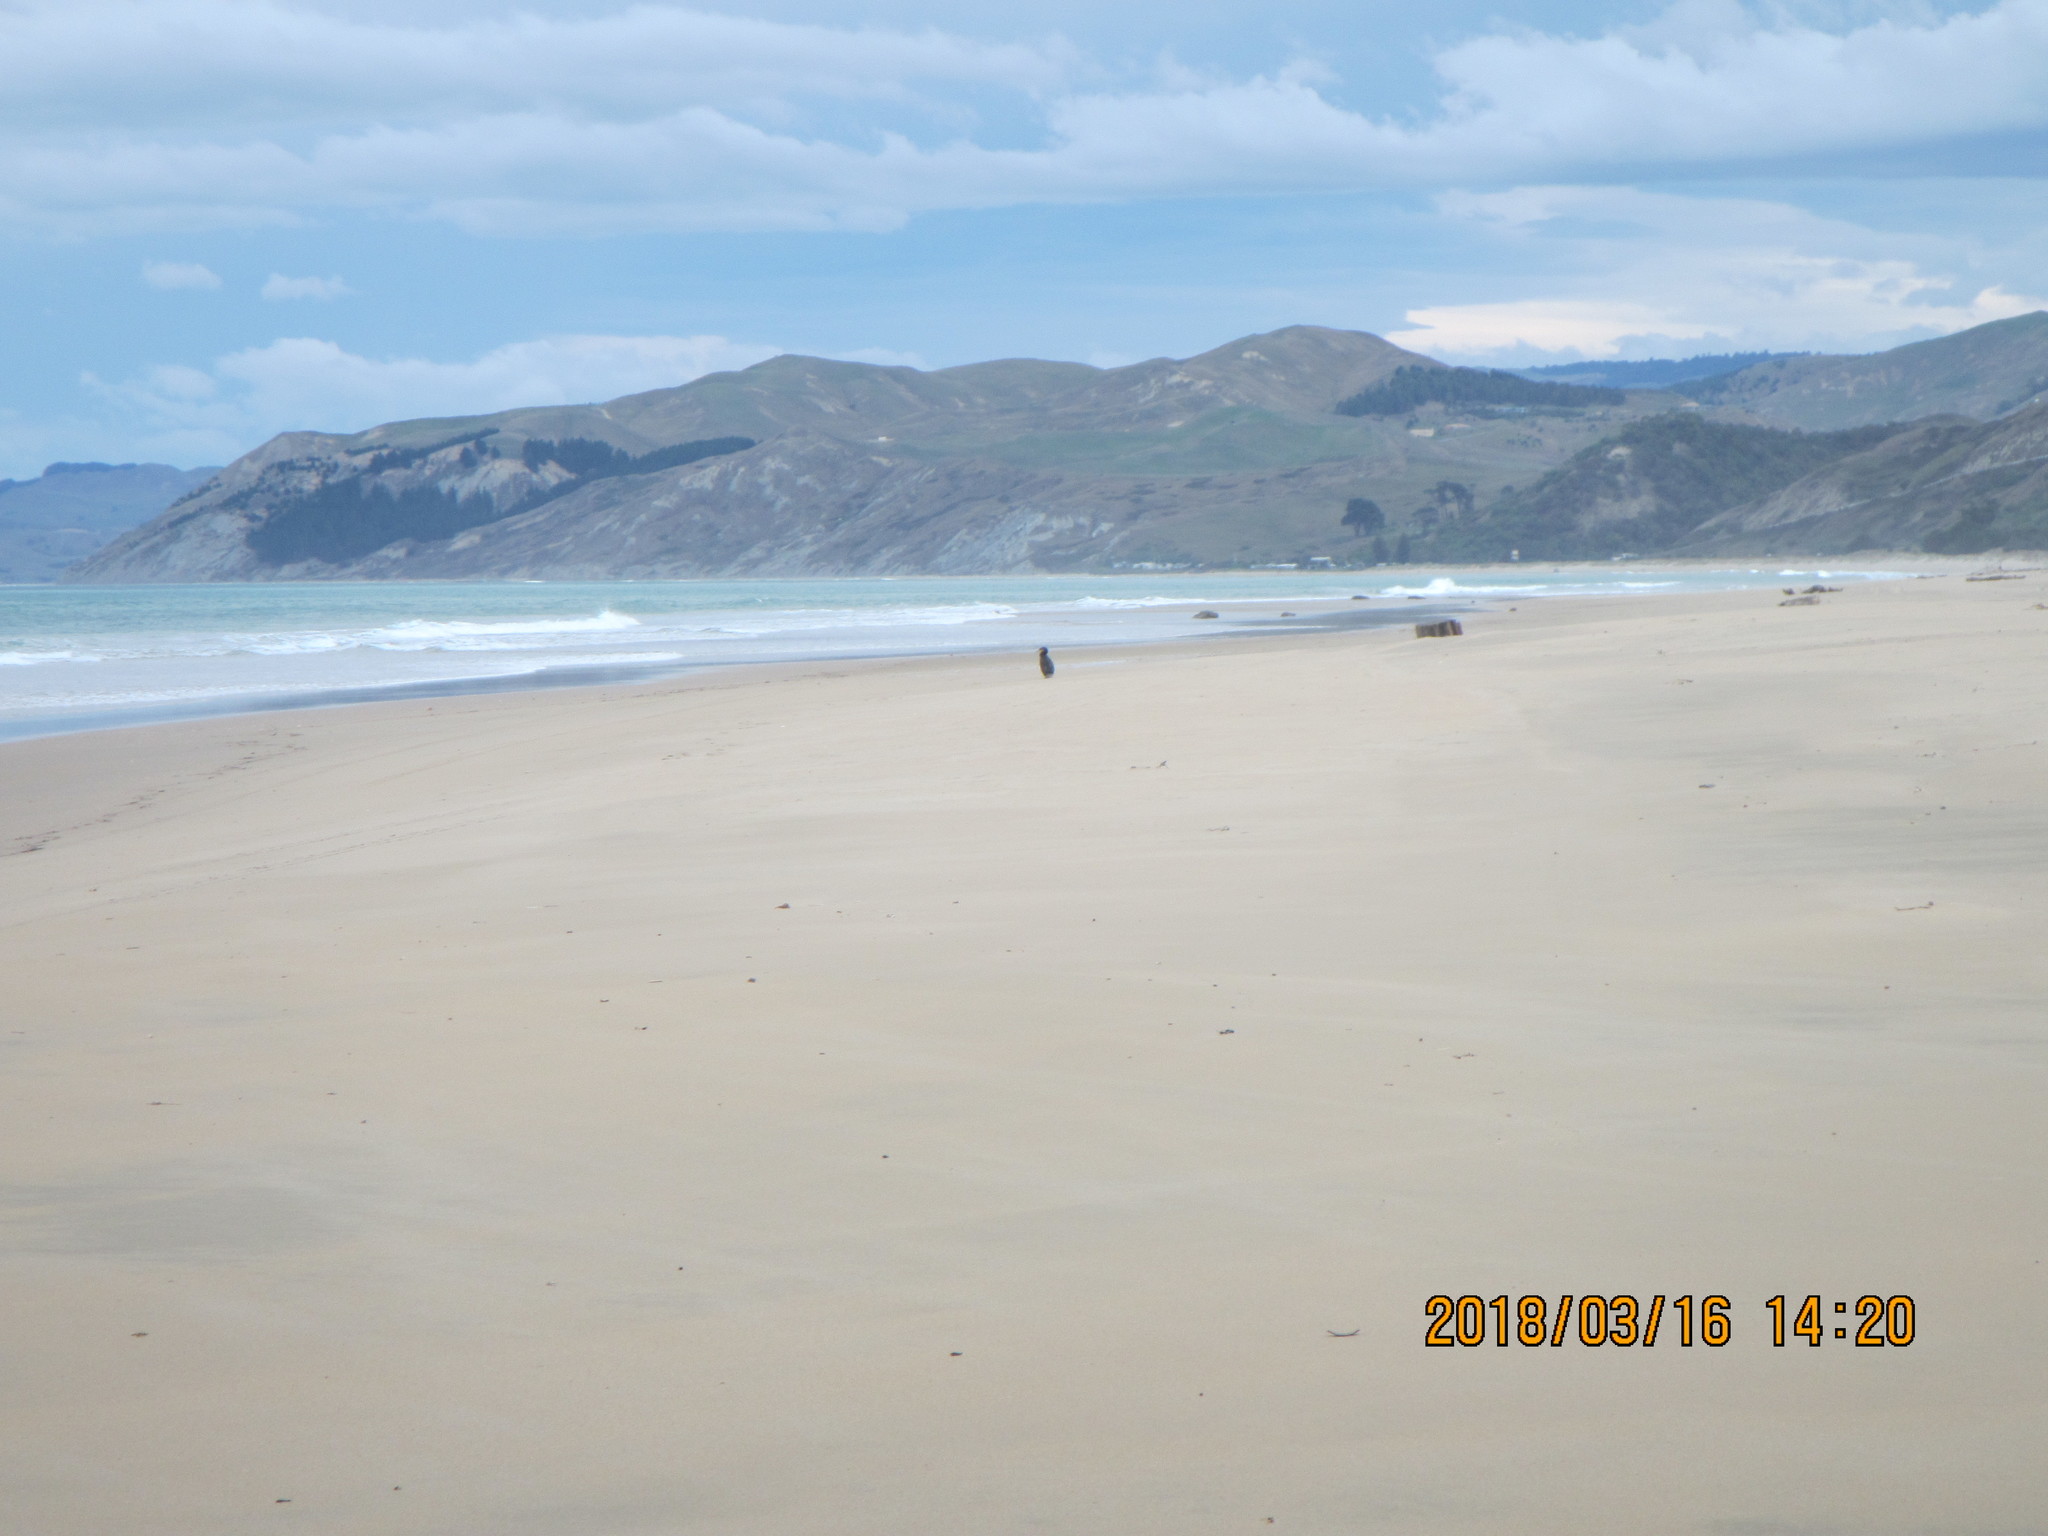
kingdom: Animalia
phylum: Chordata
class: Aves
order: Suliformes
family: Phalacrocoracidae
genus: Phalacrocorax
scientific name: Phalacrocorax carbo
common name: Great cormorant
